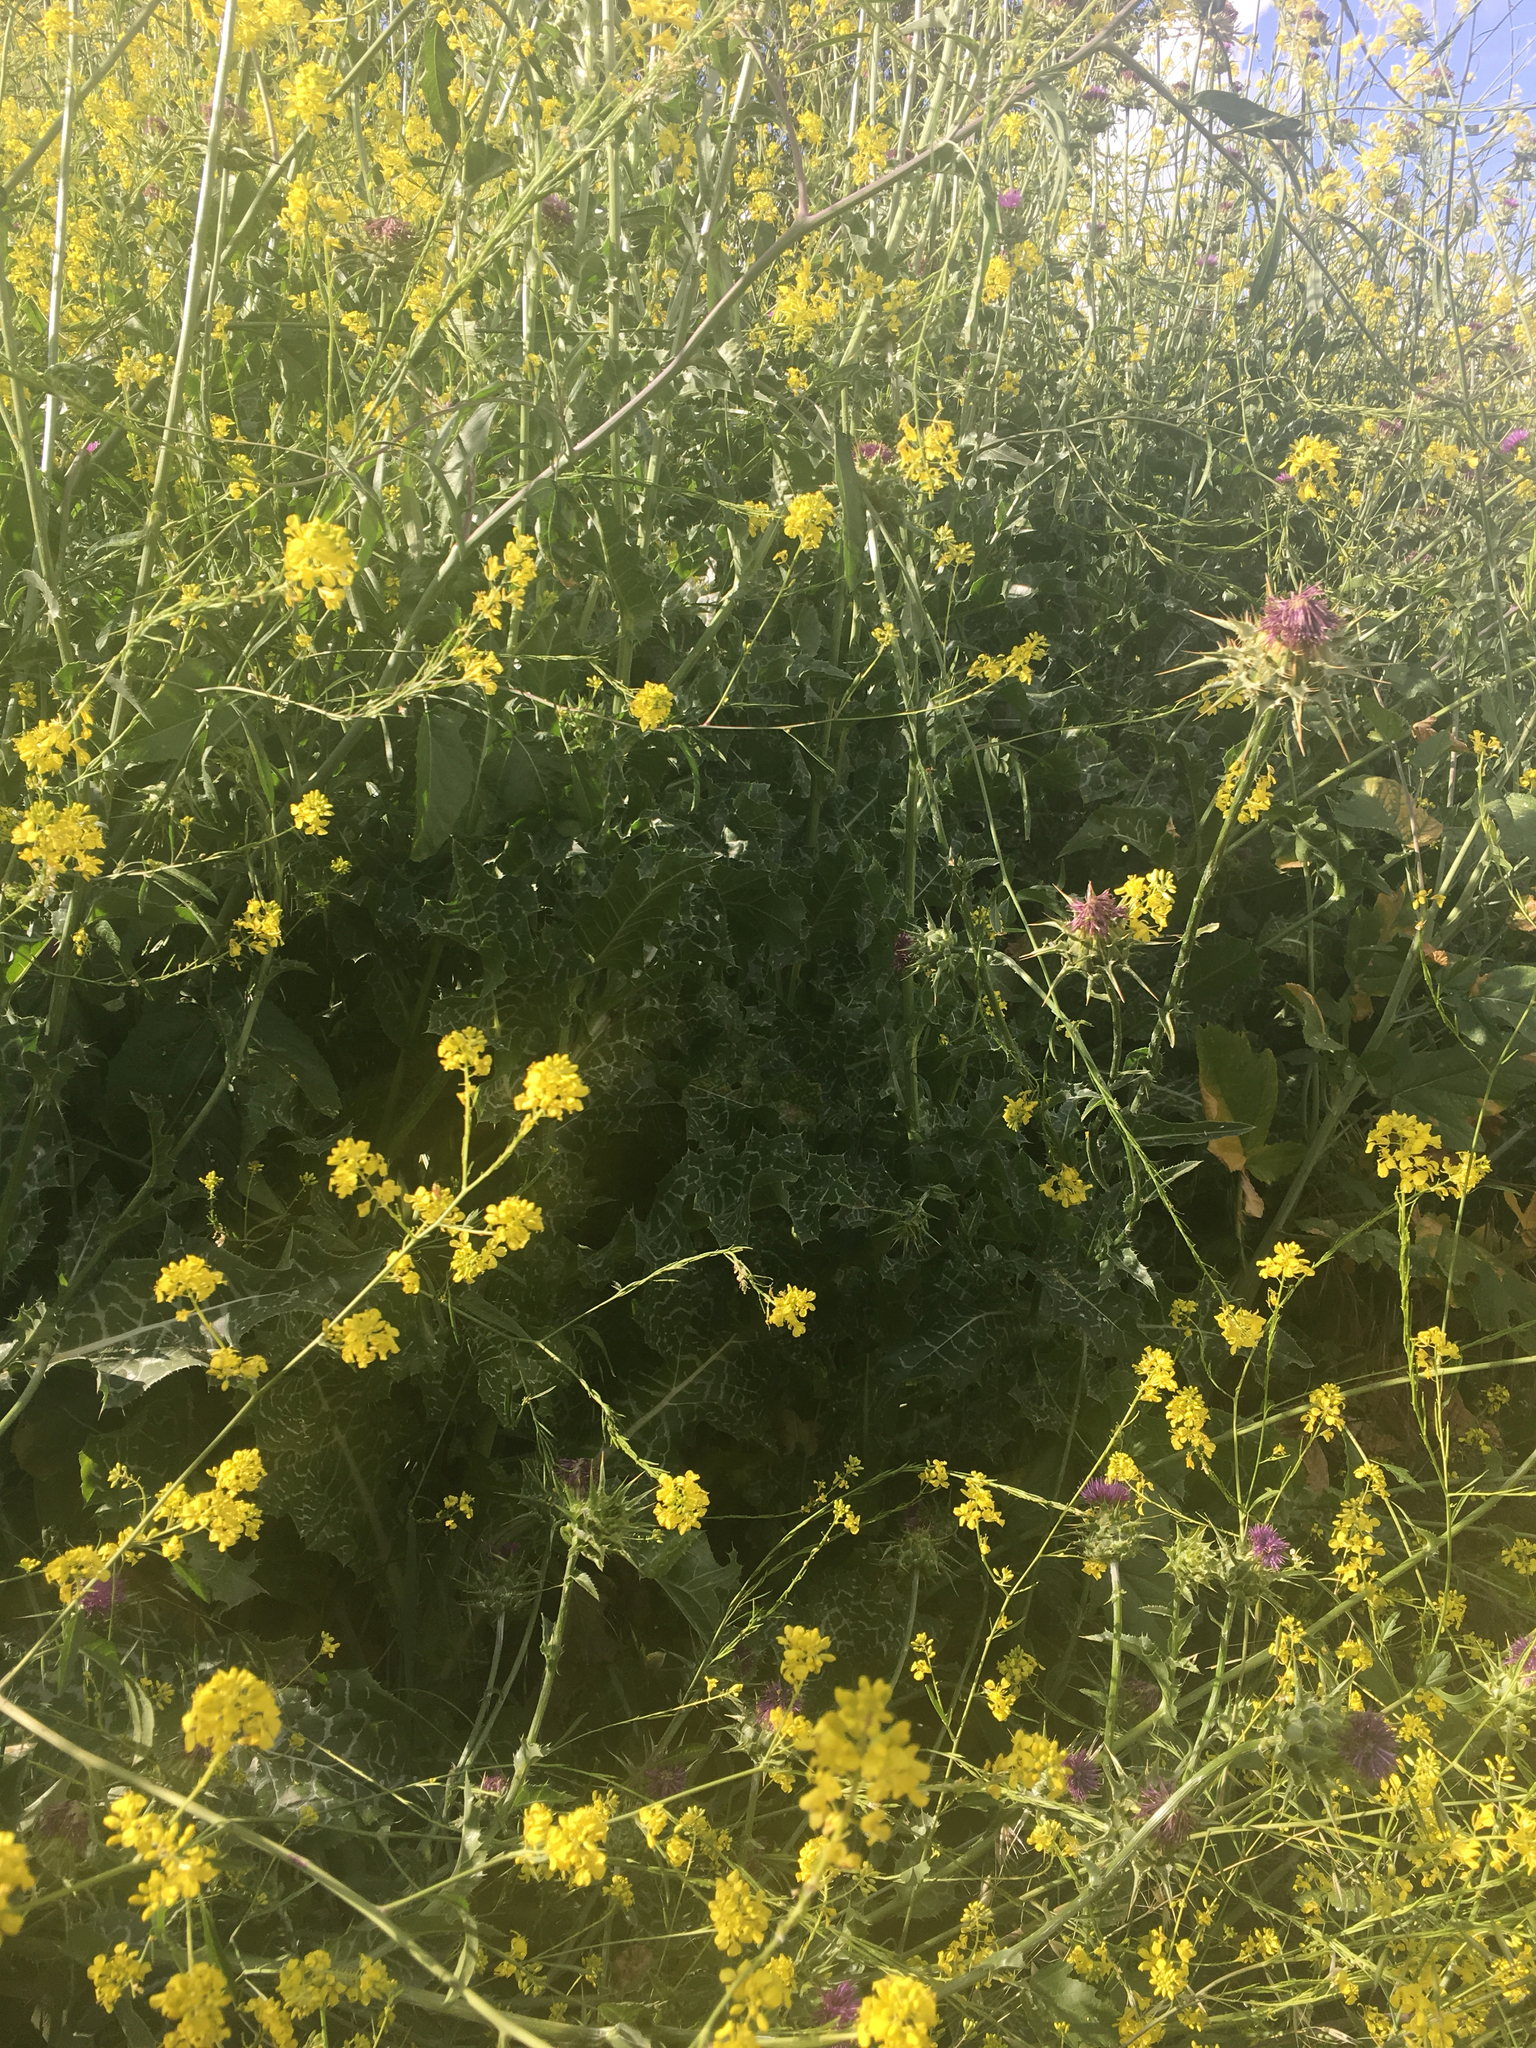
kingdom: Plantae
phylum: Tracheophyta
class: Magnoliopsida
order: Asterales
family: Asteraceae
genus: Silybum
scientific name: Silybum marianum
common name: Milk thistle
